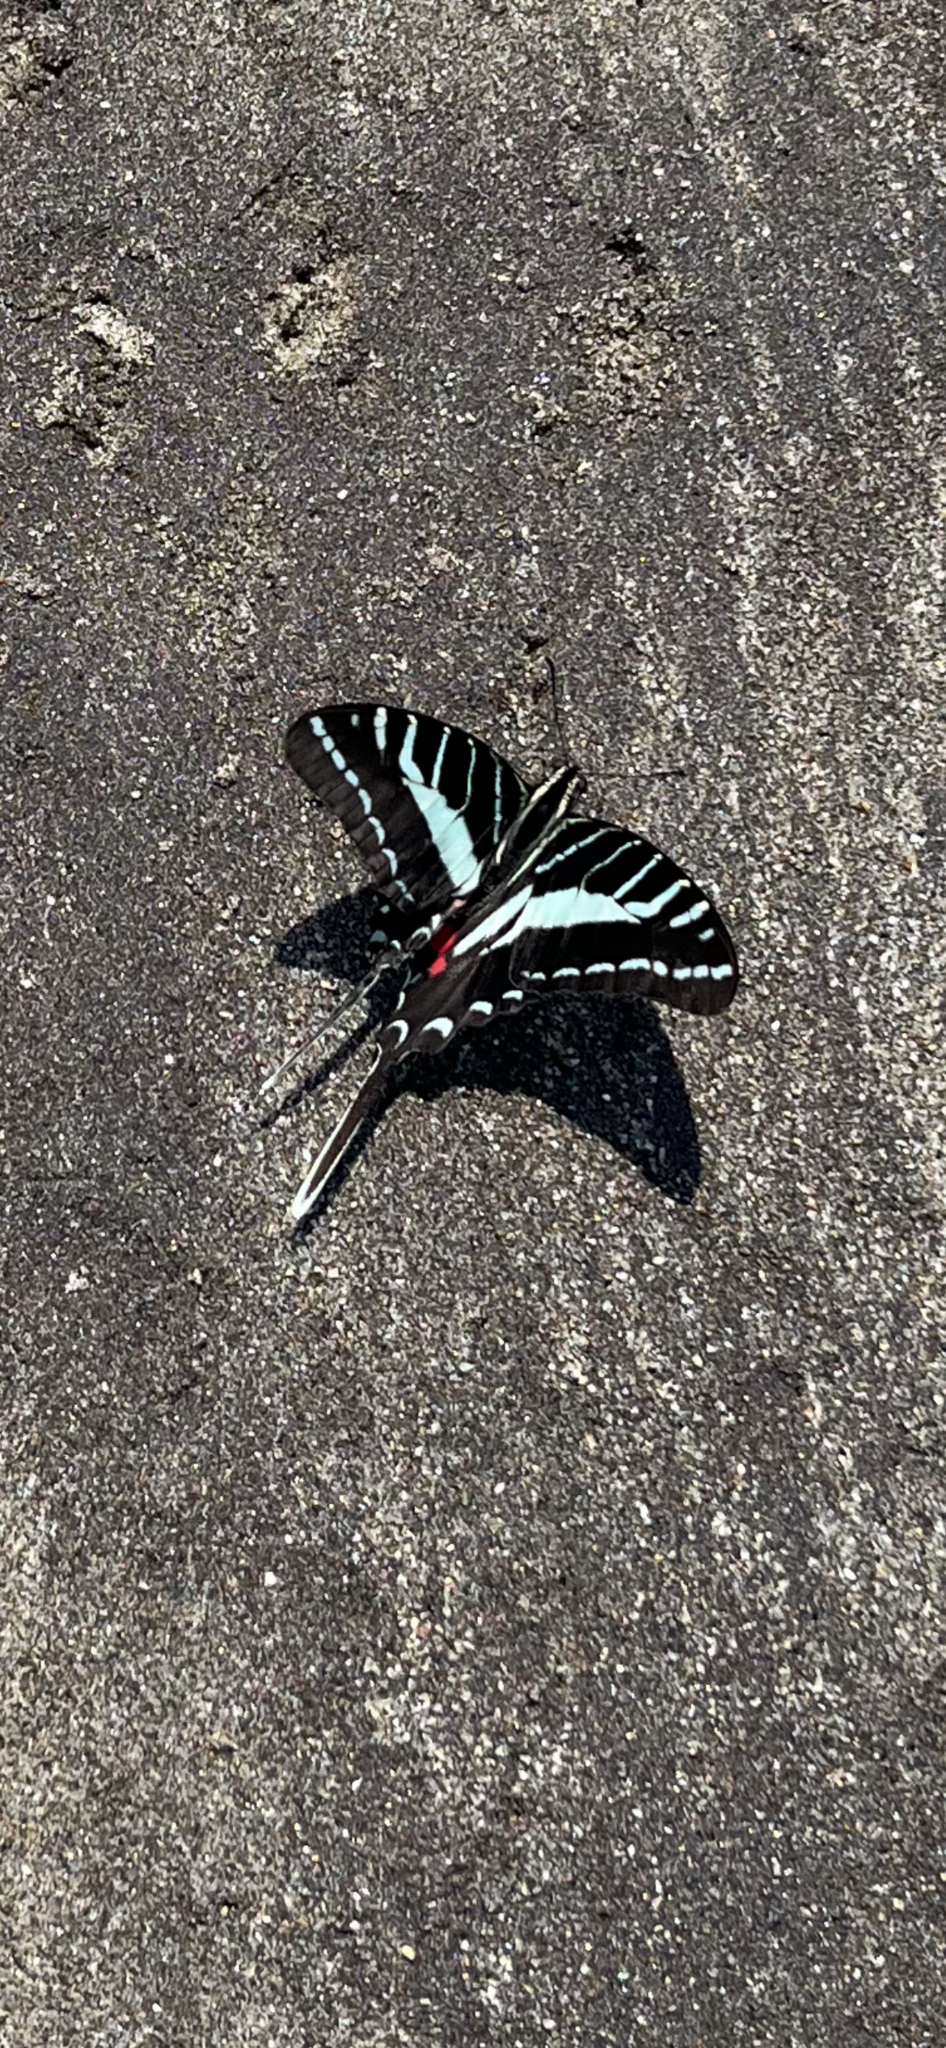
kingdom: Animalia
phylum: Arthropoda
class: Insecta
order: Lepidoptera
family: Papilionidae
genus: Protographium
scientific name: Protographium philolaus
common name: Dark zebra swallowtail
